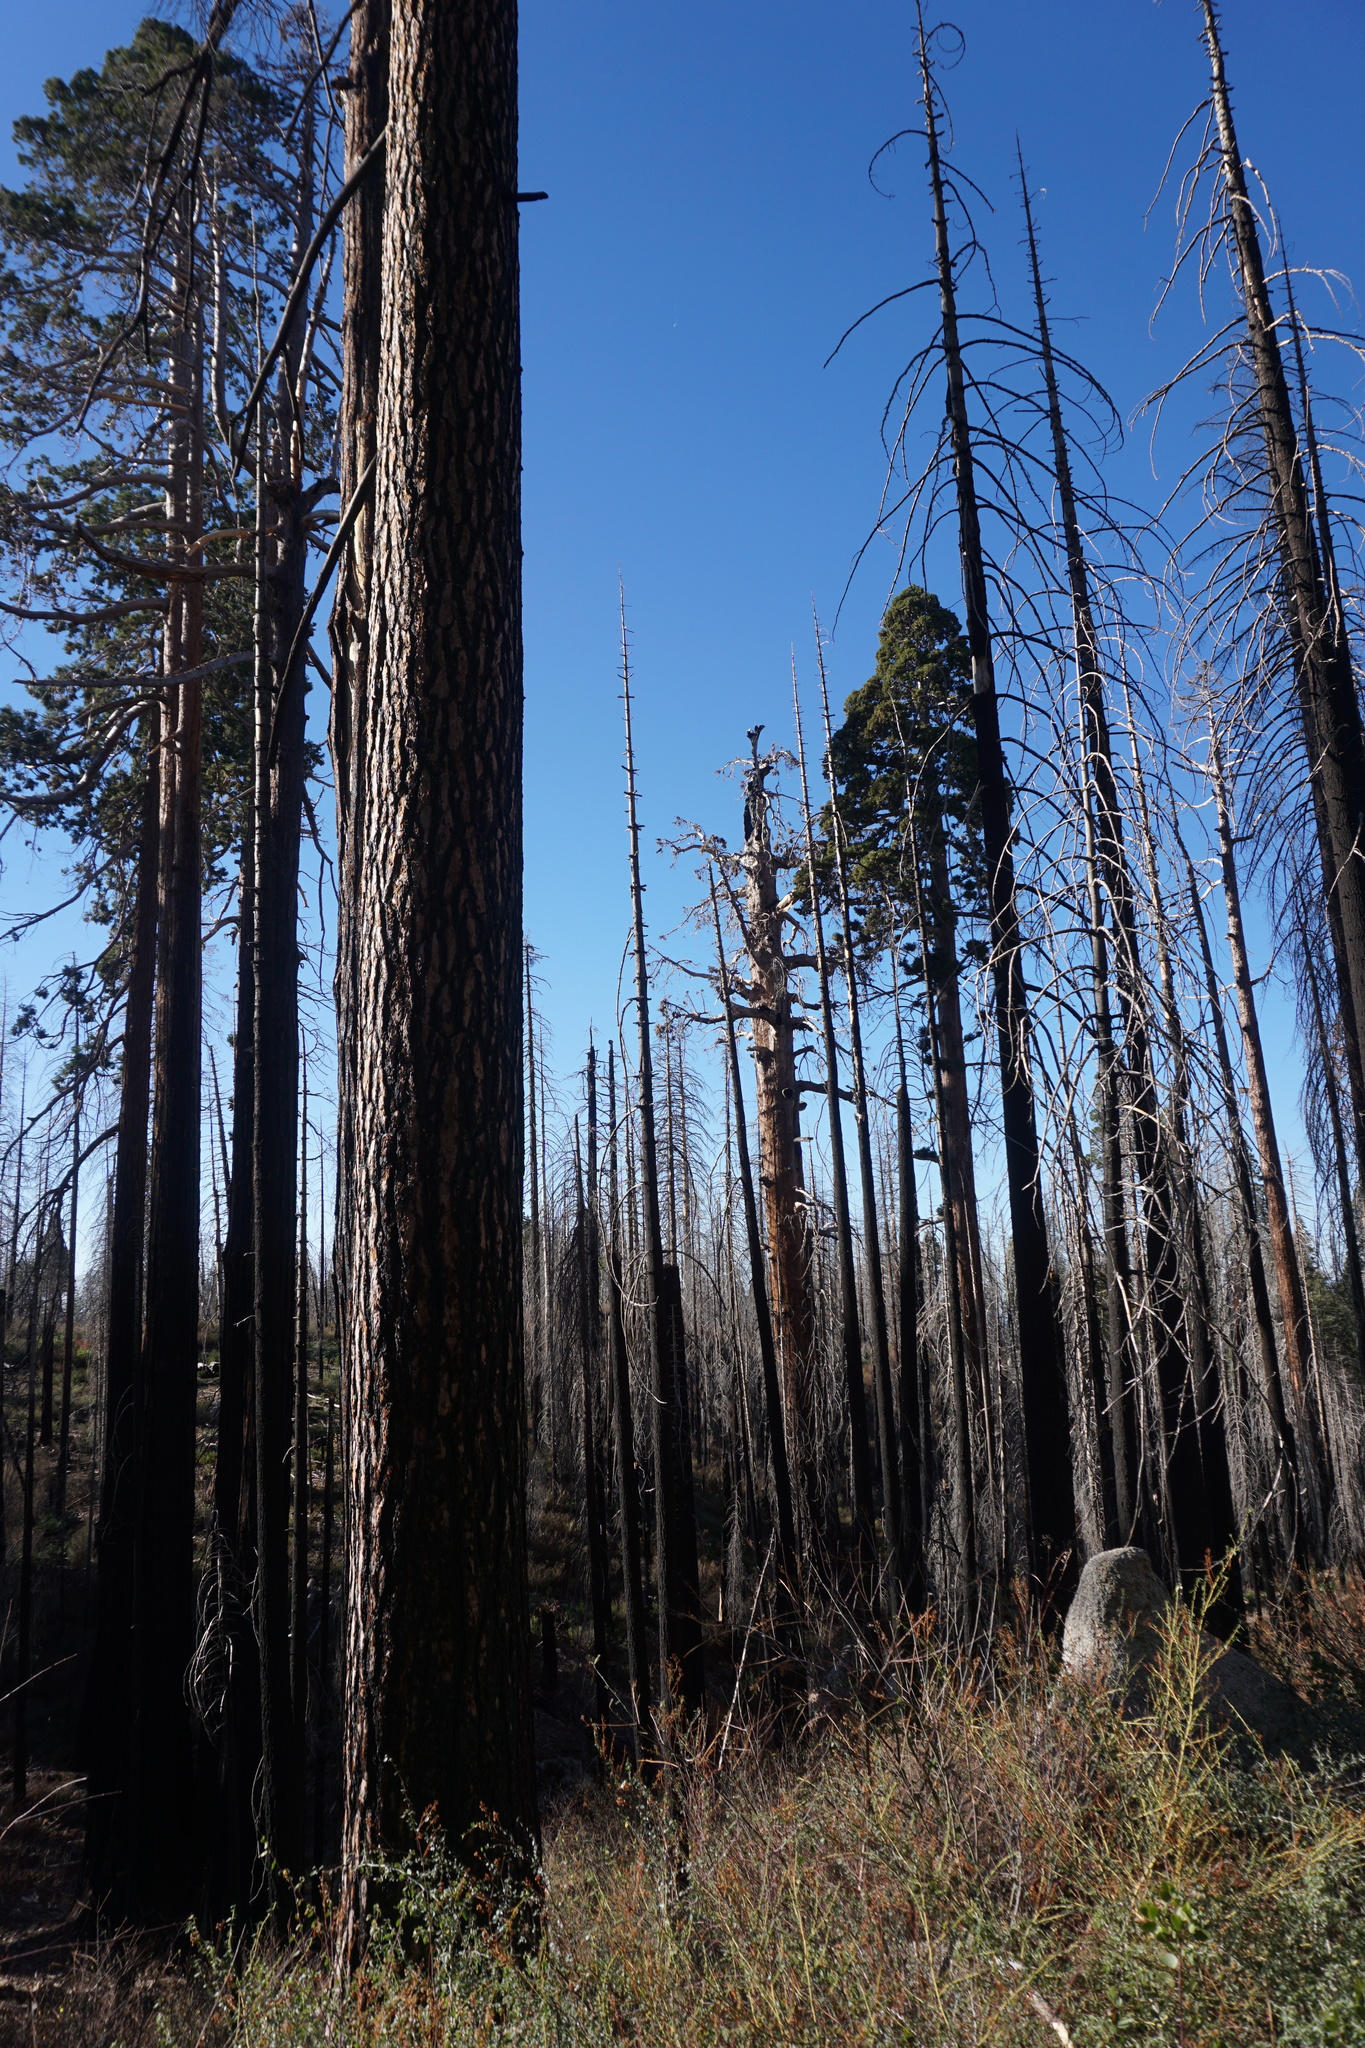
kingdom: Plantae
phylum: Tracheophyta
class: Pinopsida
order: Pinales
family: Cupressaceae
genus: Sequoiadendron
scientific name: Sequoiadendron giganteum
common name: Wellingtonia
